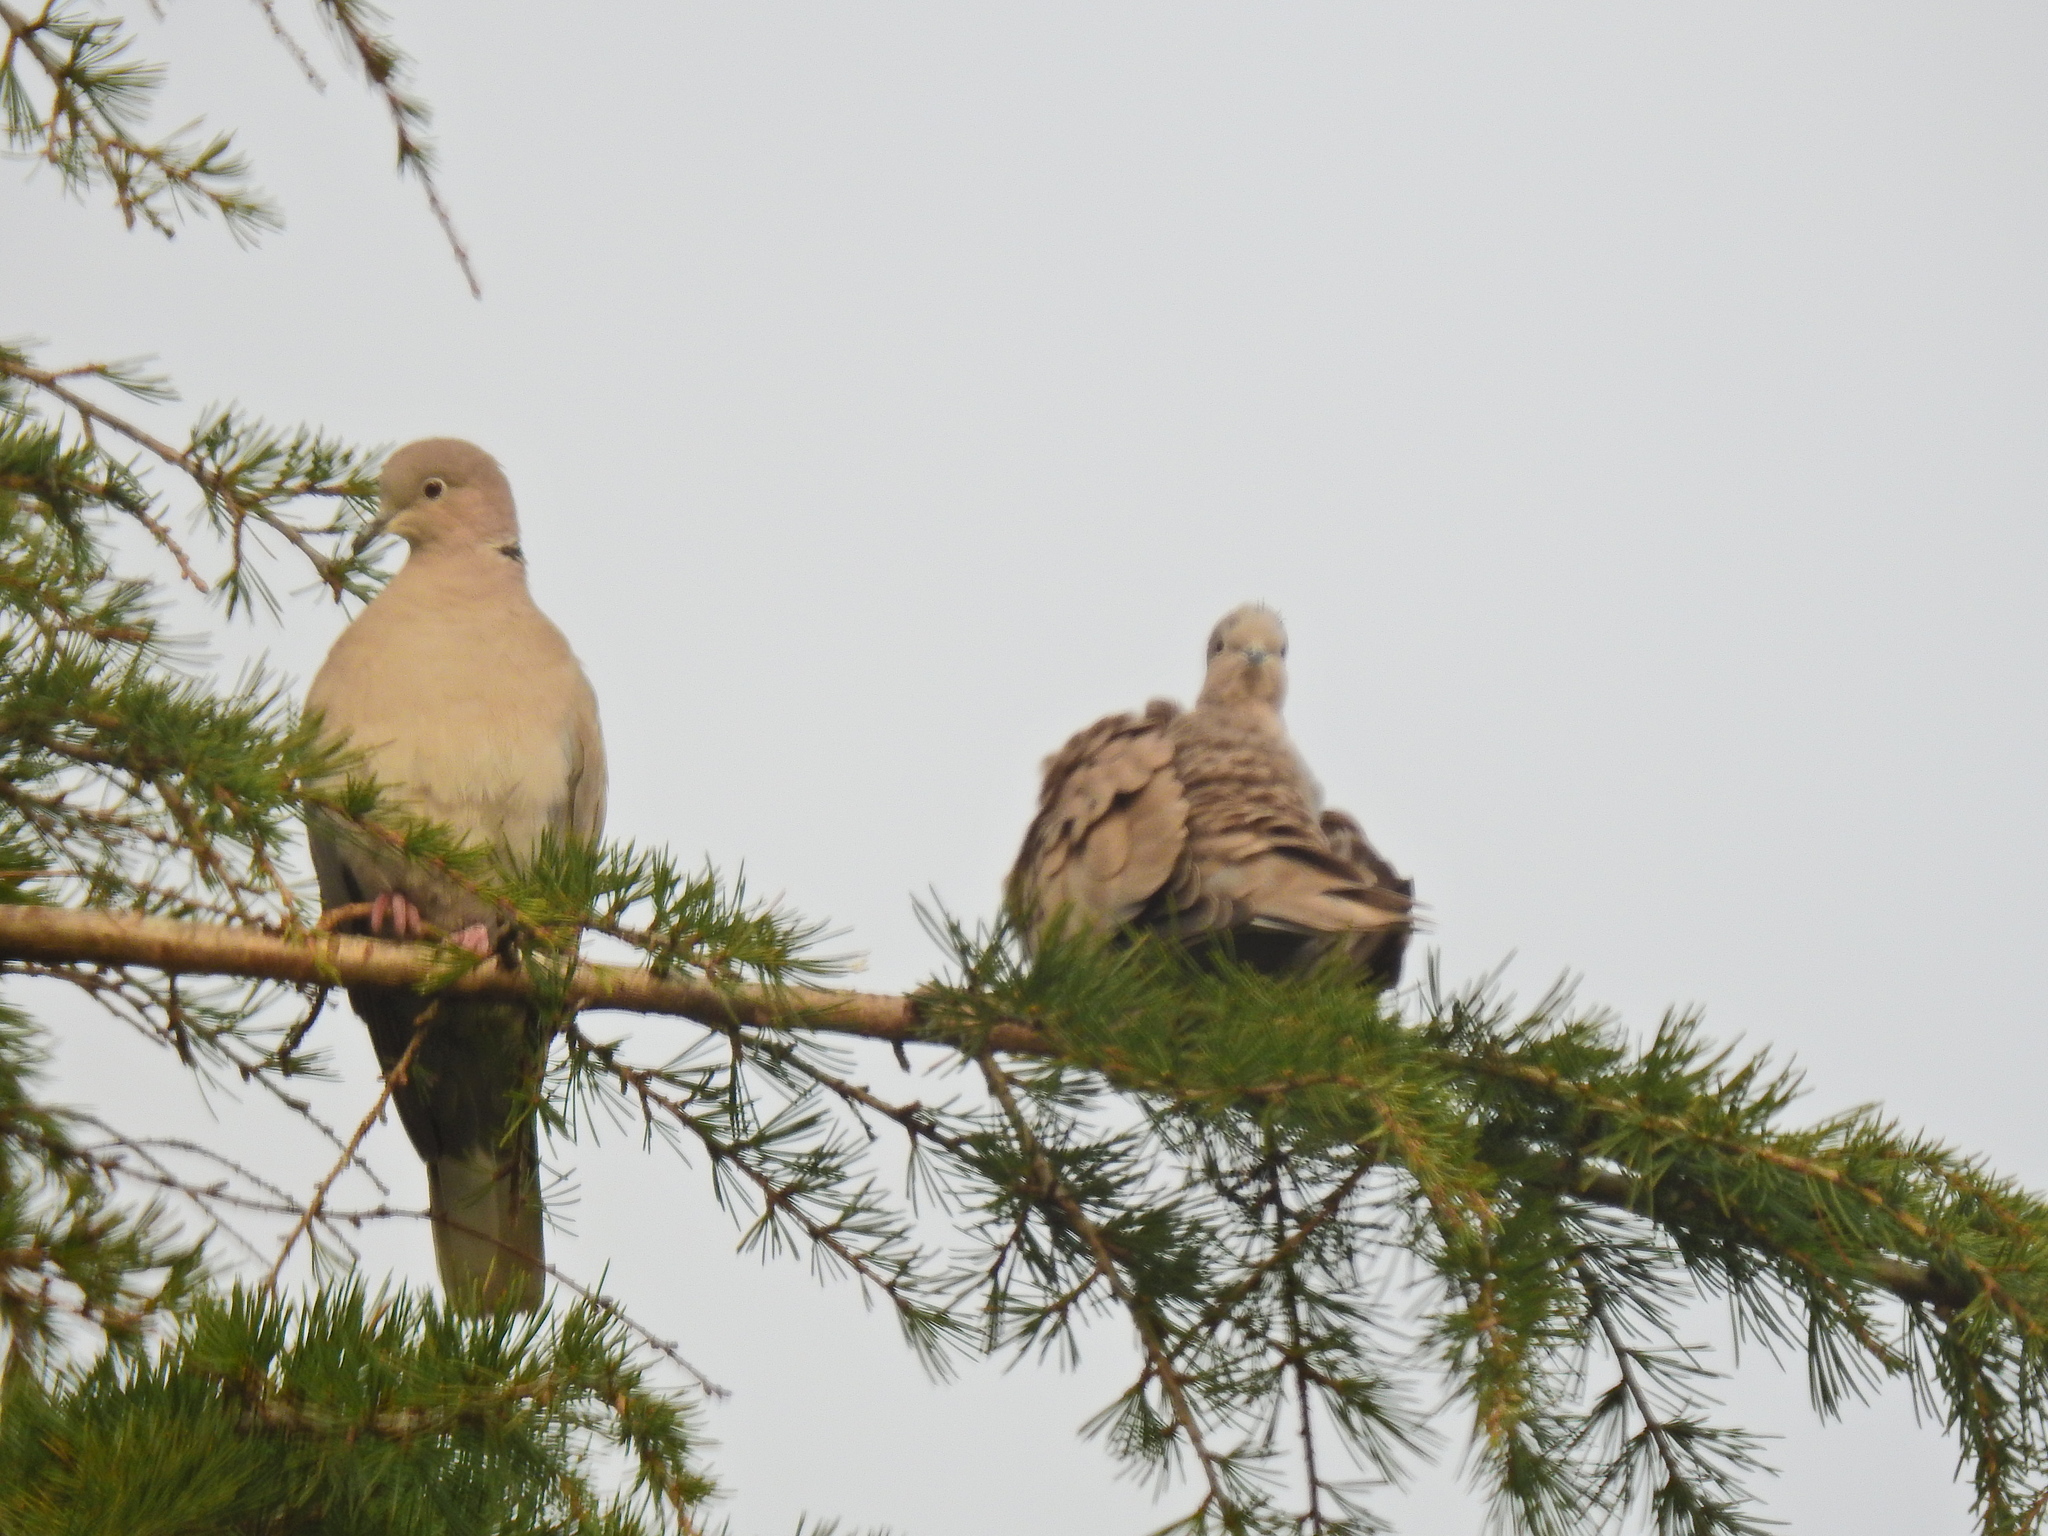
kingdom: Animalia
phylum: Chordata
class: Aves
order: Columbiformes
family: Columbidae
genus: Streptopelia
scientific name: Streptopelia decaocto
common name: Eurasian collared dove
